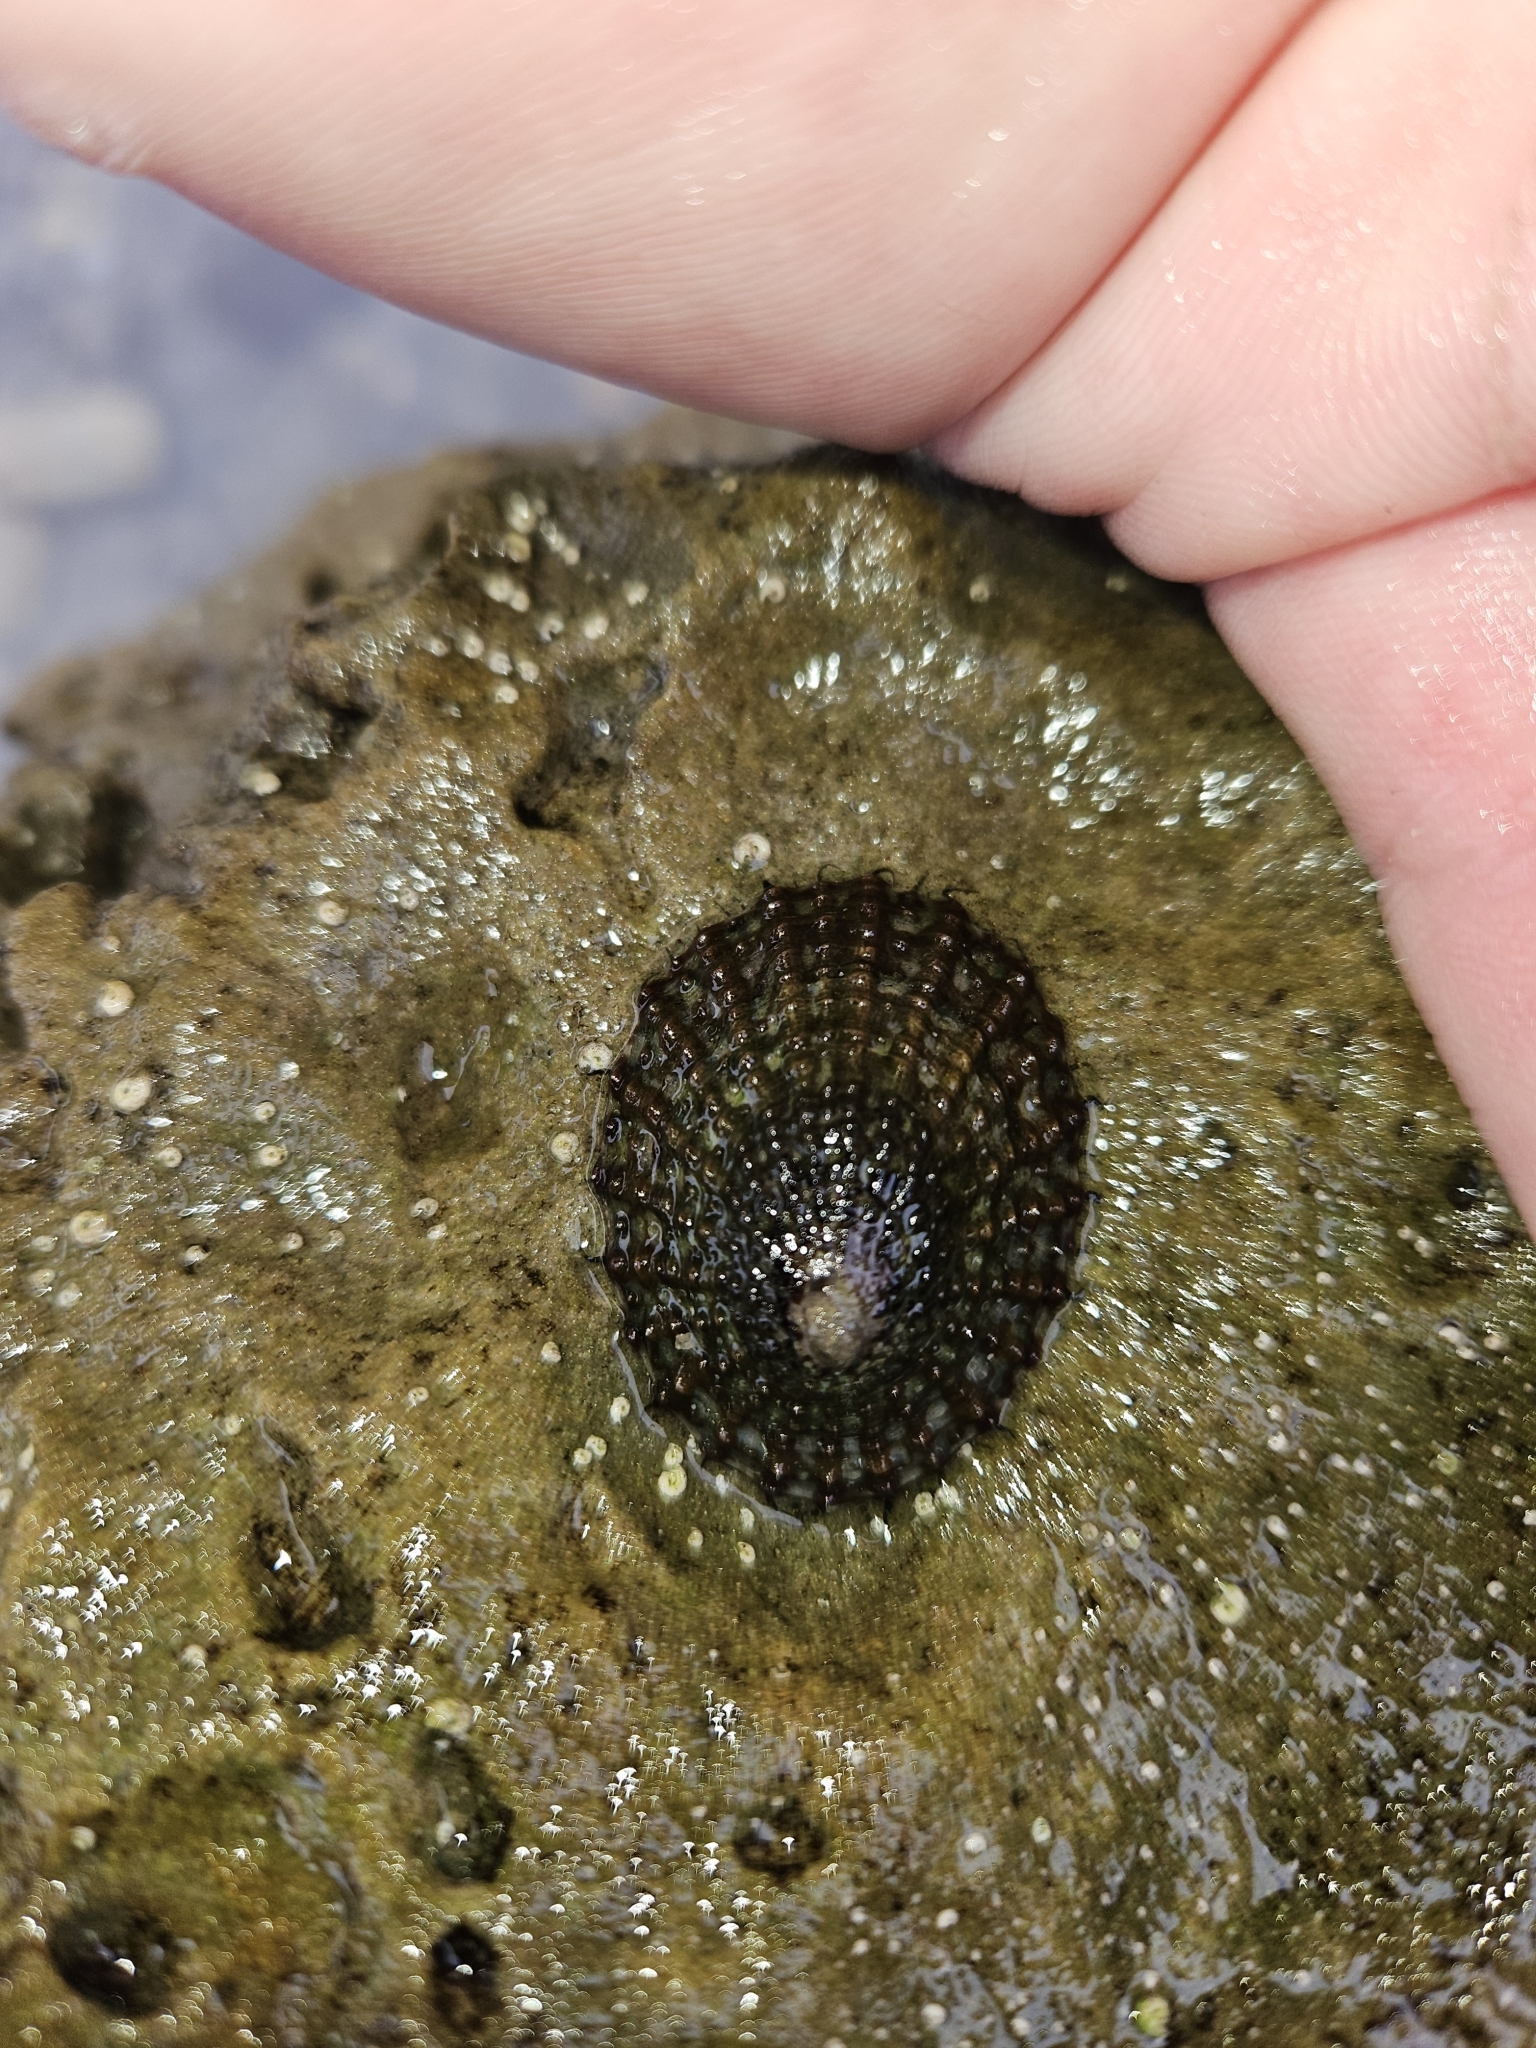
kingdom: Animalia
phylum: Mollusca
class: Gastropoda
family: Nacellidae
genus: Cellana
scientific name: Cellana denticulata
